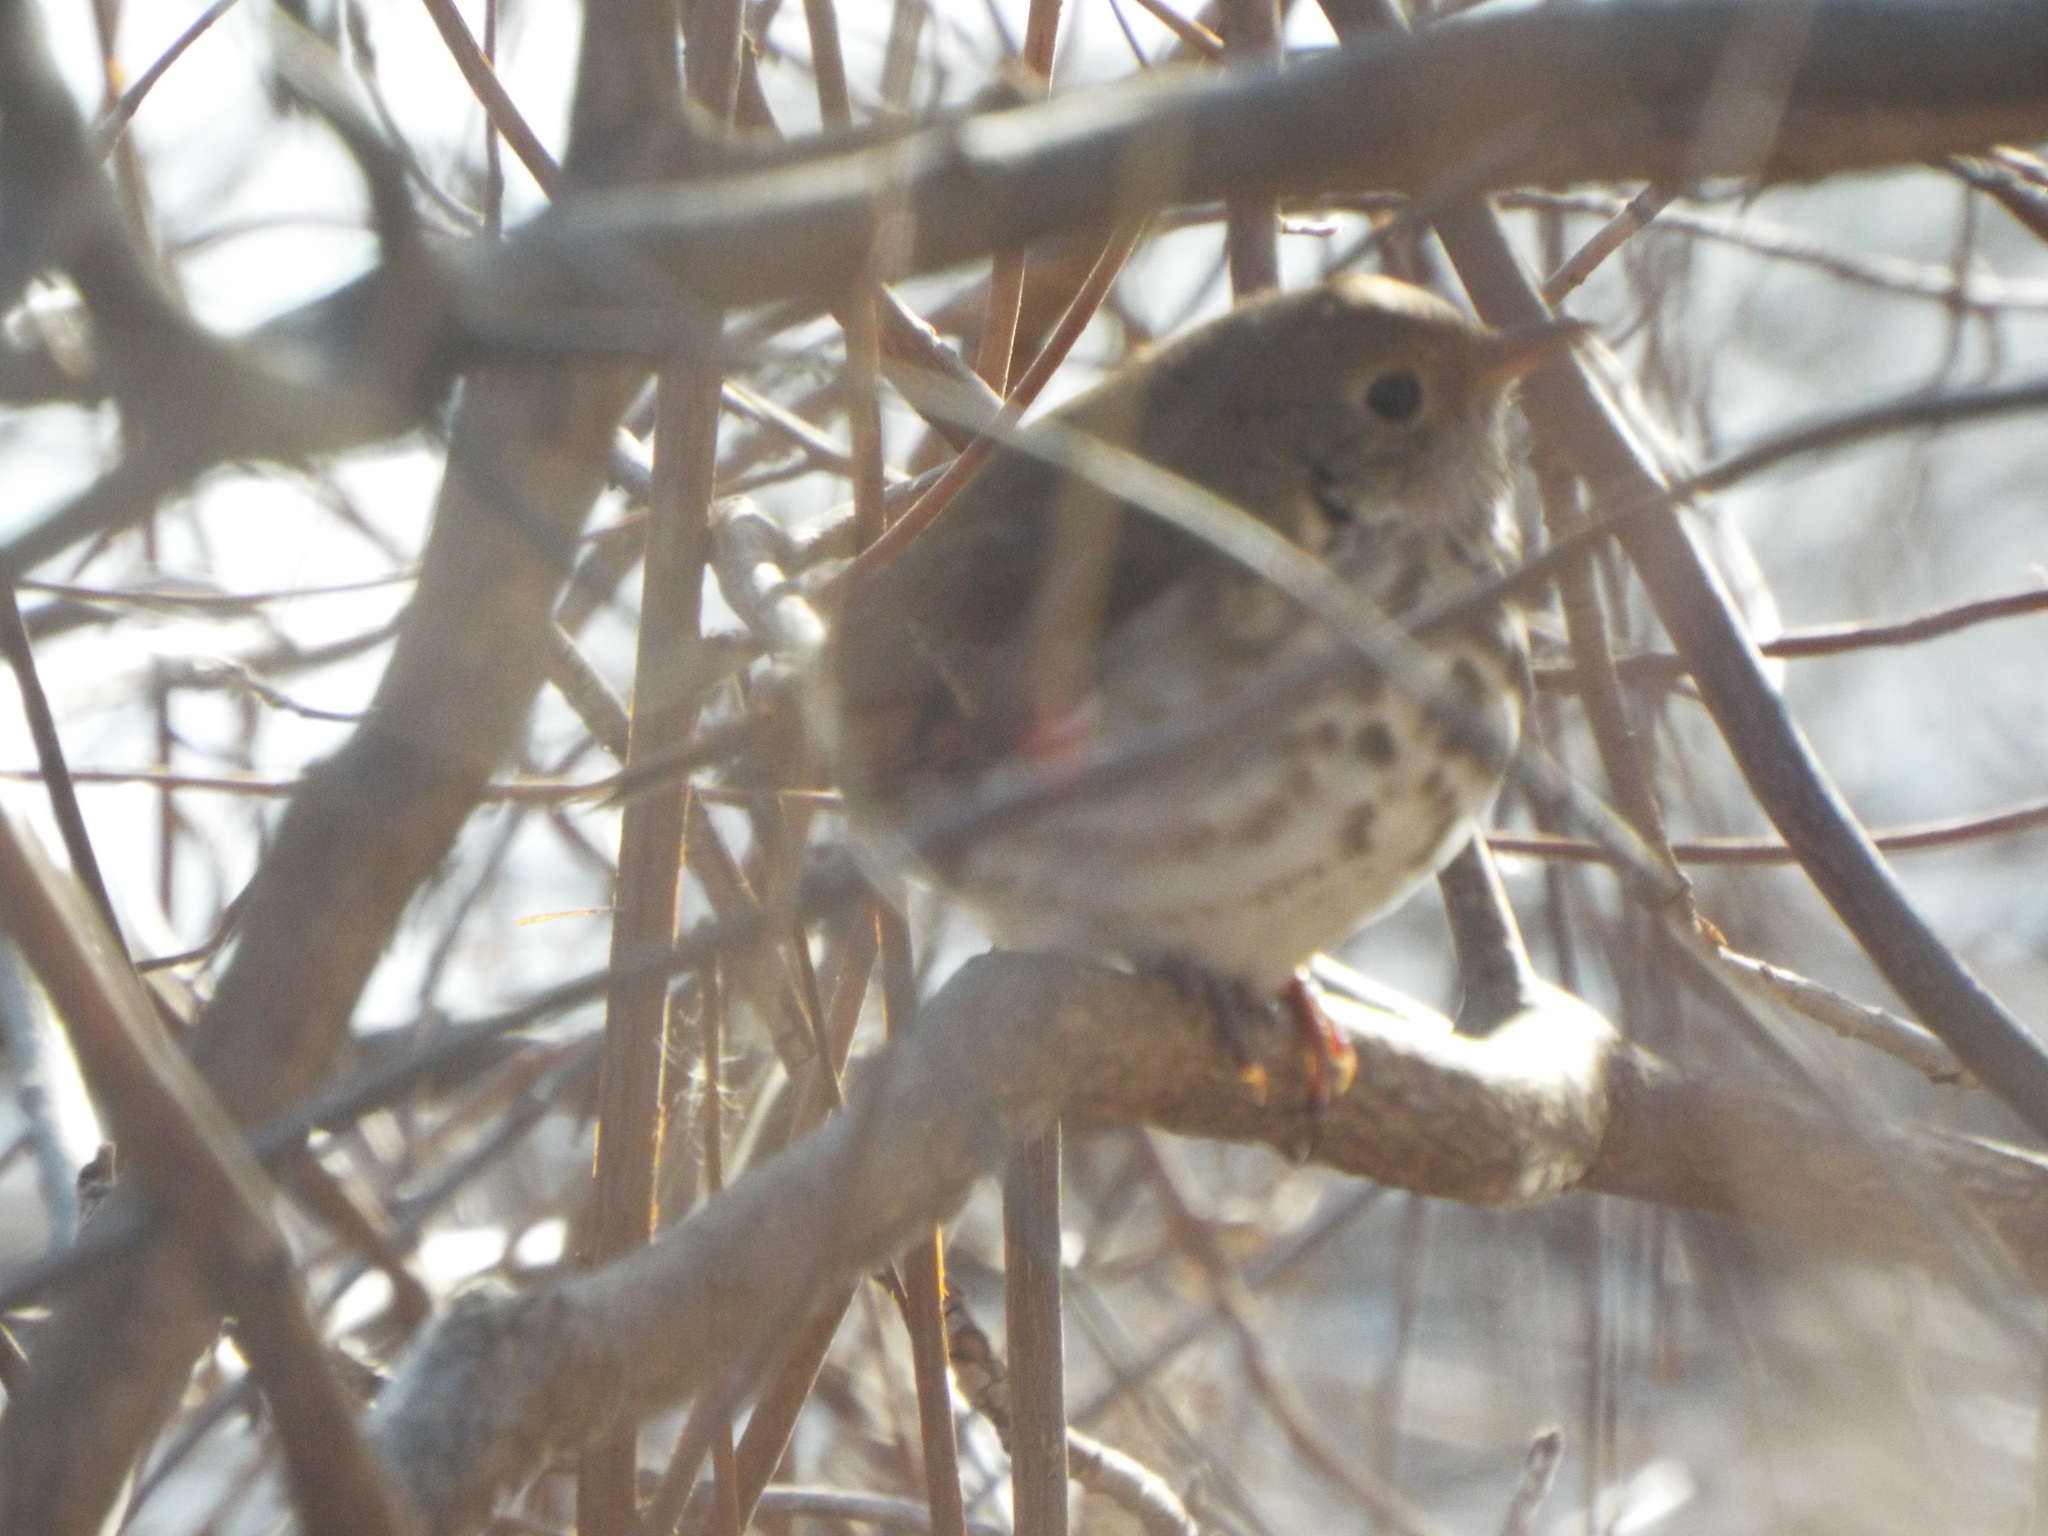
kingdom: Animalia
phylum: Chordata
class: Aves
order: Passeriformes
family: Turdidae
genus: Catharus
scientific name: Catharus guttatus
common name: Hermit thrush
